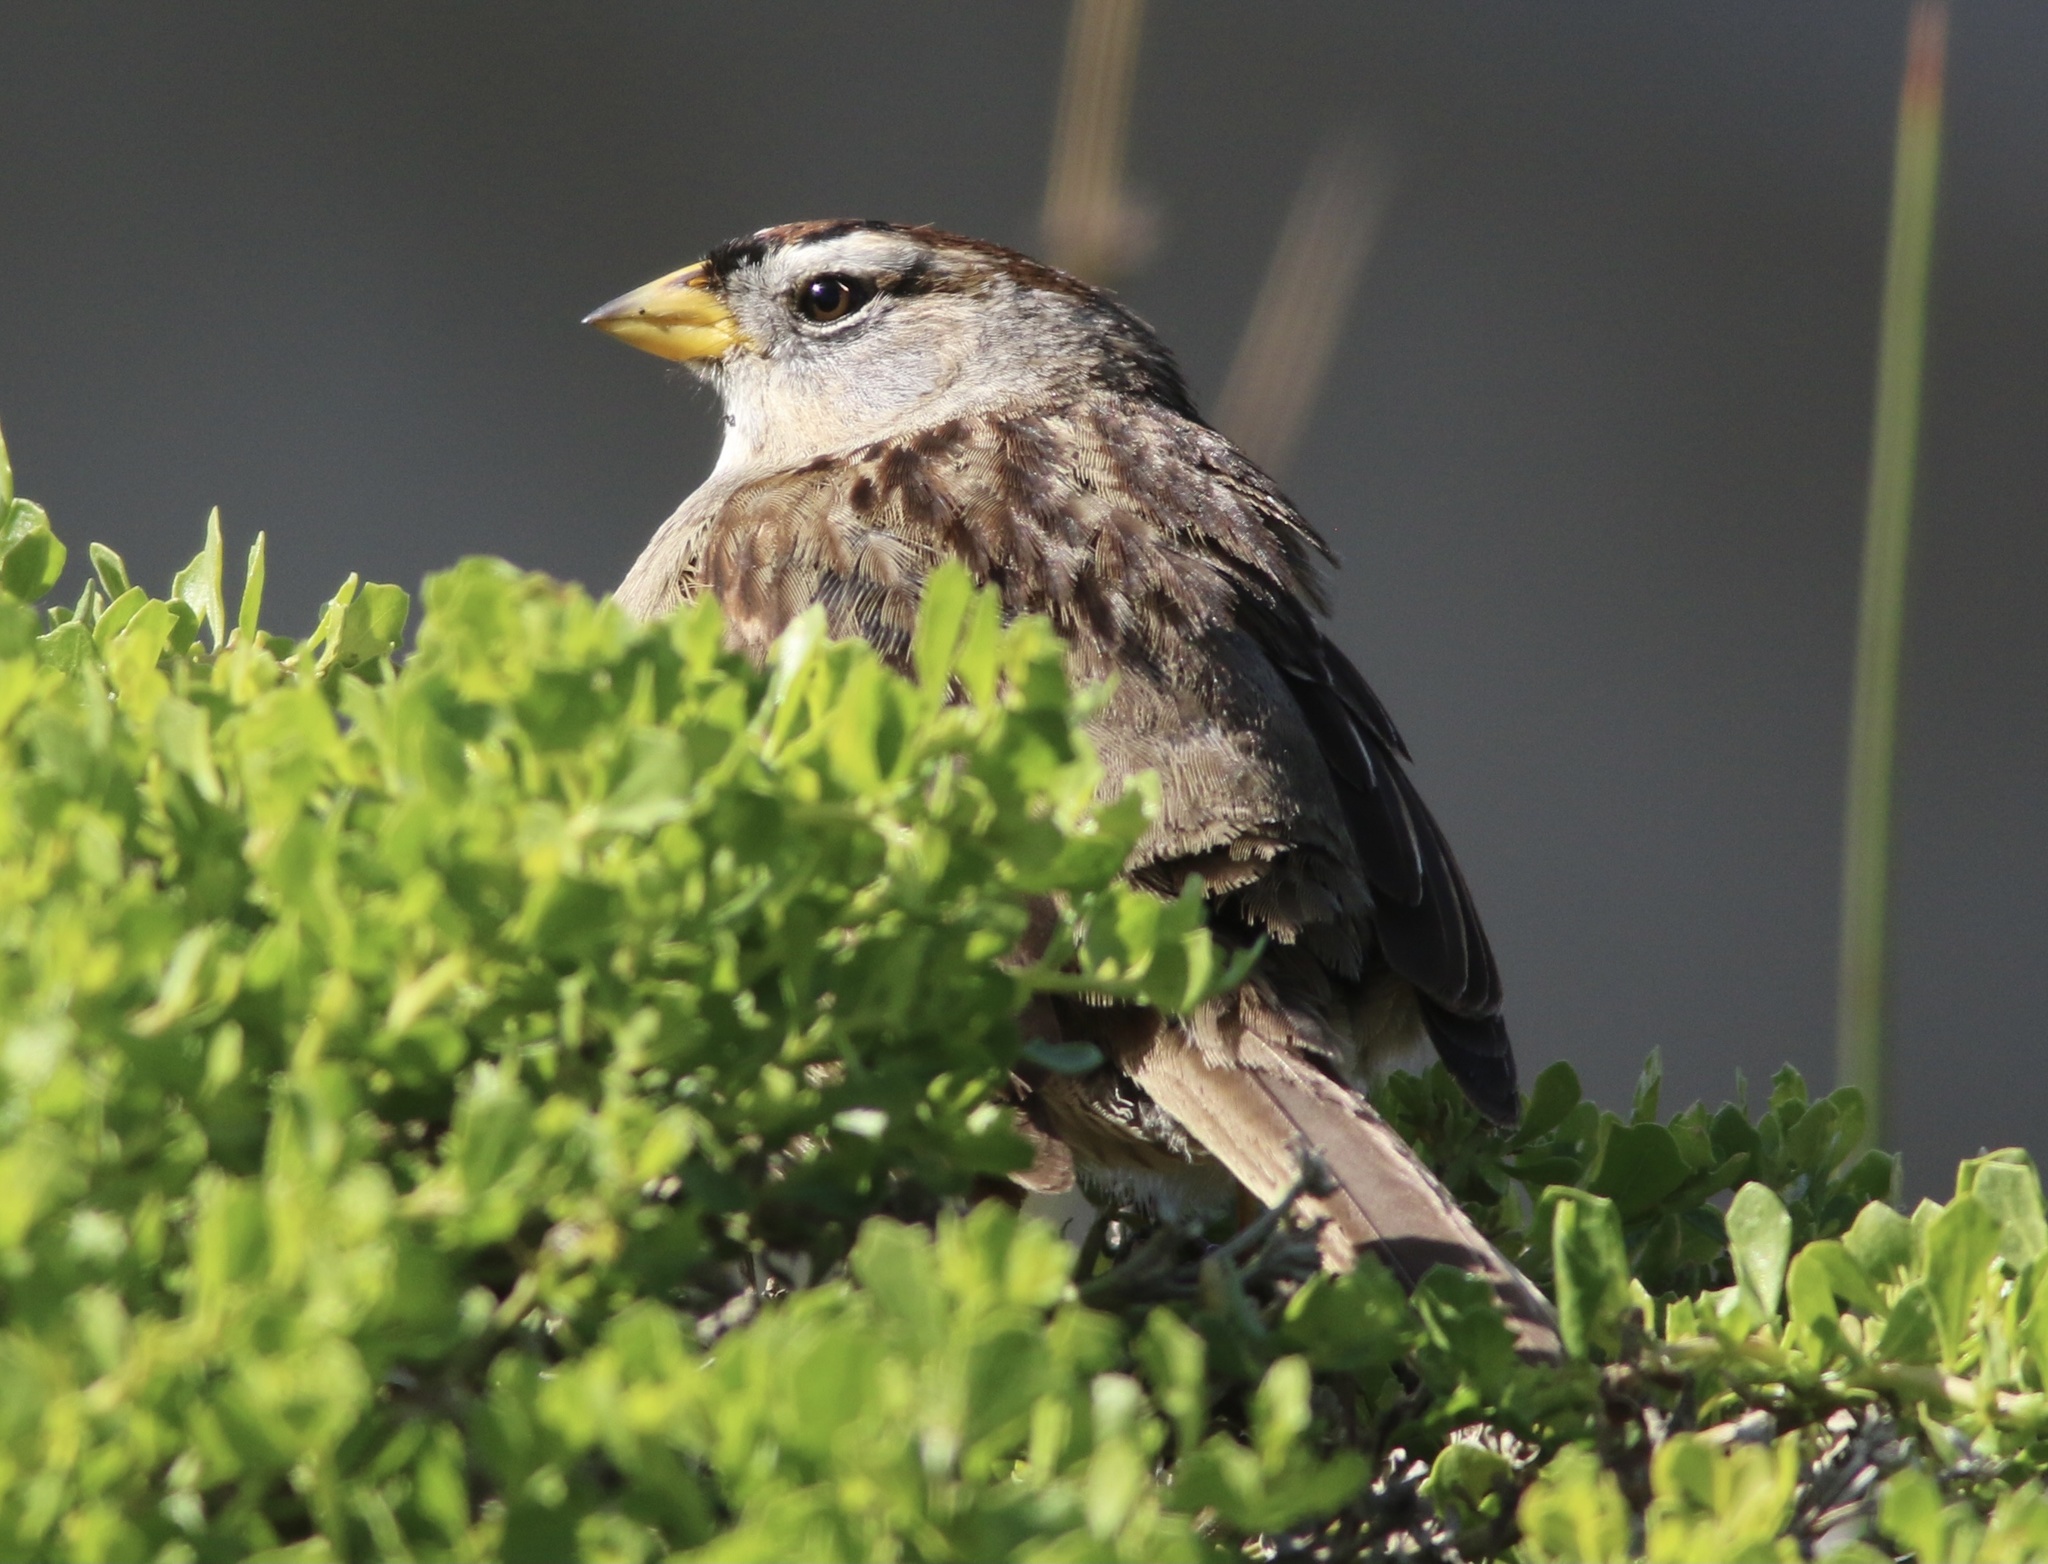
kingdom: Animalia
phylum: Chordata
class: Aves
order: Passeriformes
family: Passerellidae
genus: Zonotrichia
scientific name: Zonotrichia leucophrys
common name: White-crowned sparrow
